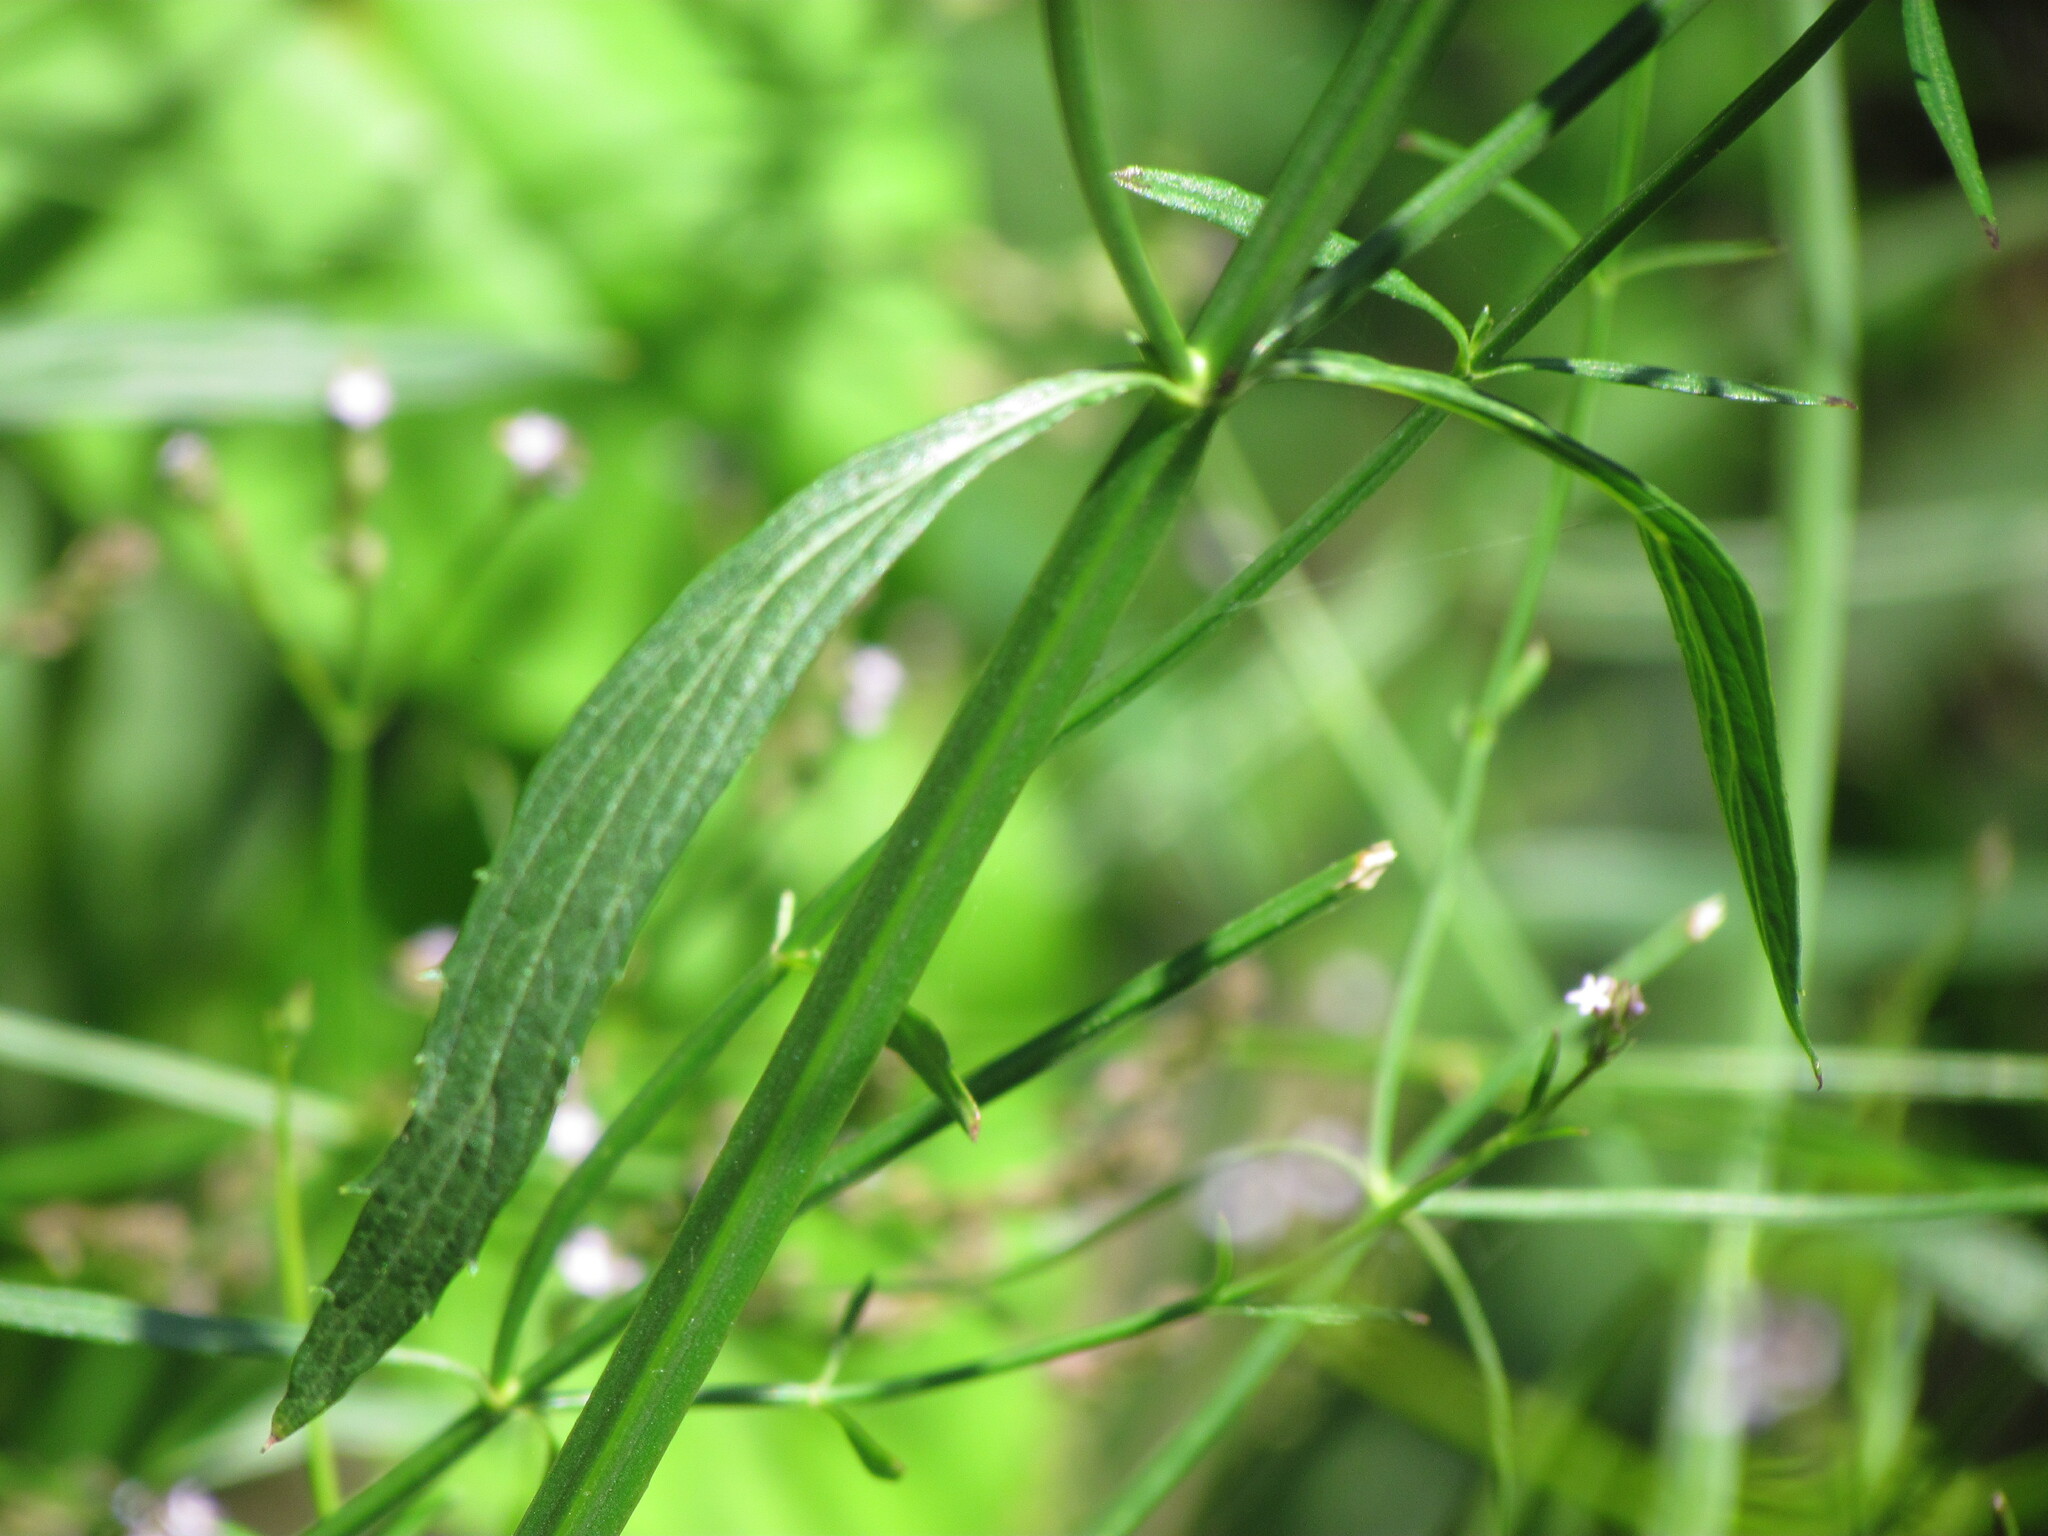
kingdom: Plantae
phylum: Tracheophyta
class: Magnoliopsida
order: Lamiales
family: Verbenaceae
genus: Verbena
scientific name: Verbena litoralis
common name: Seashore vervain
